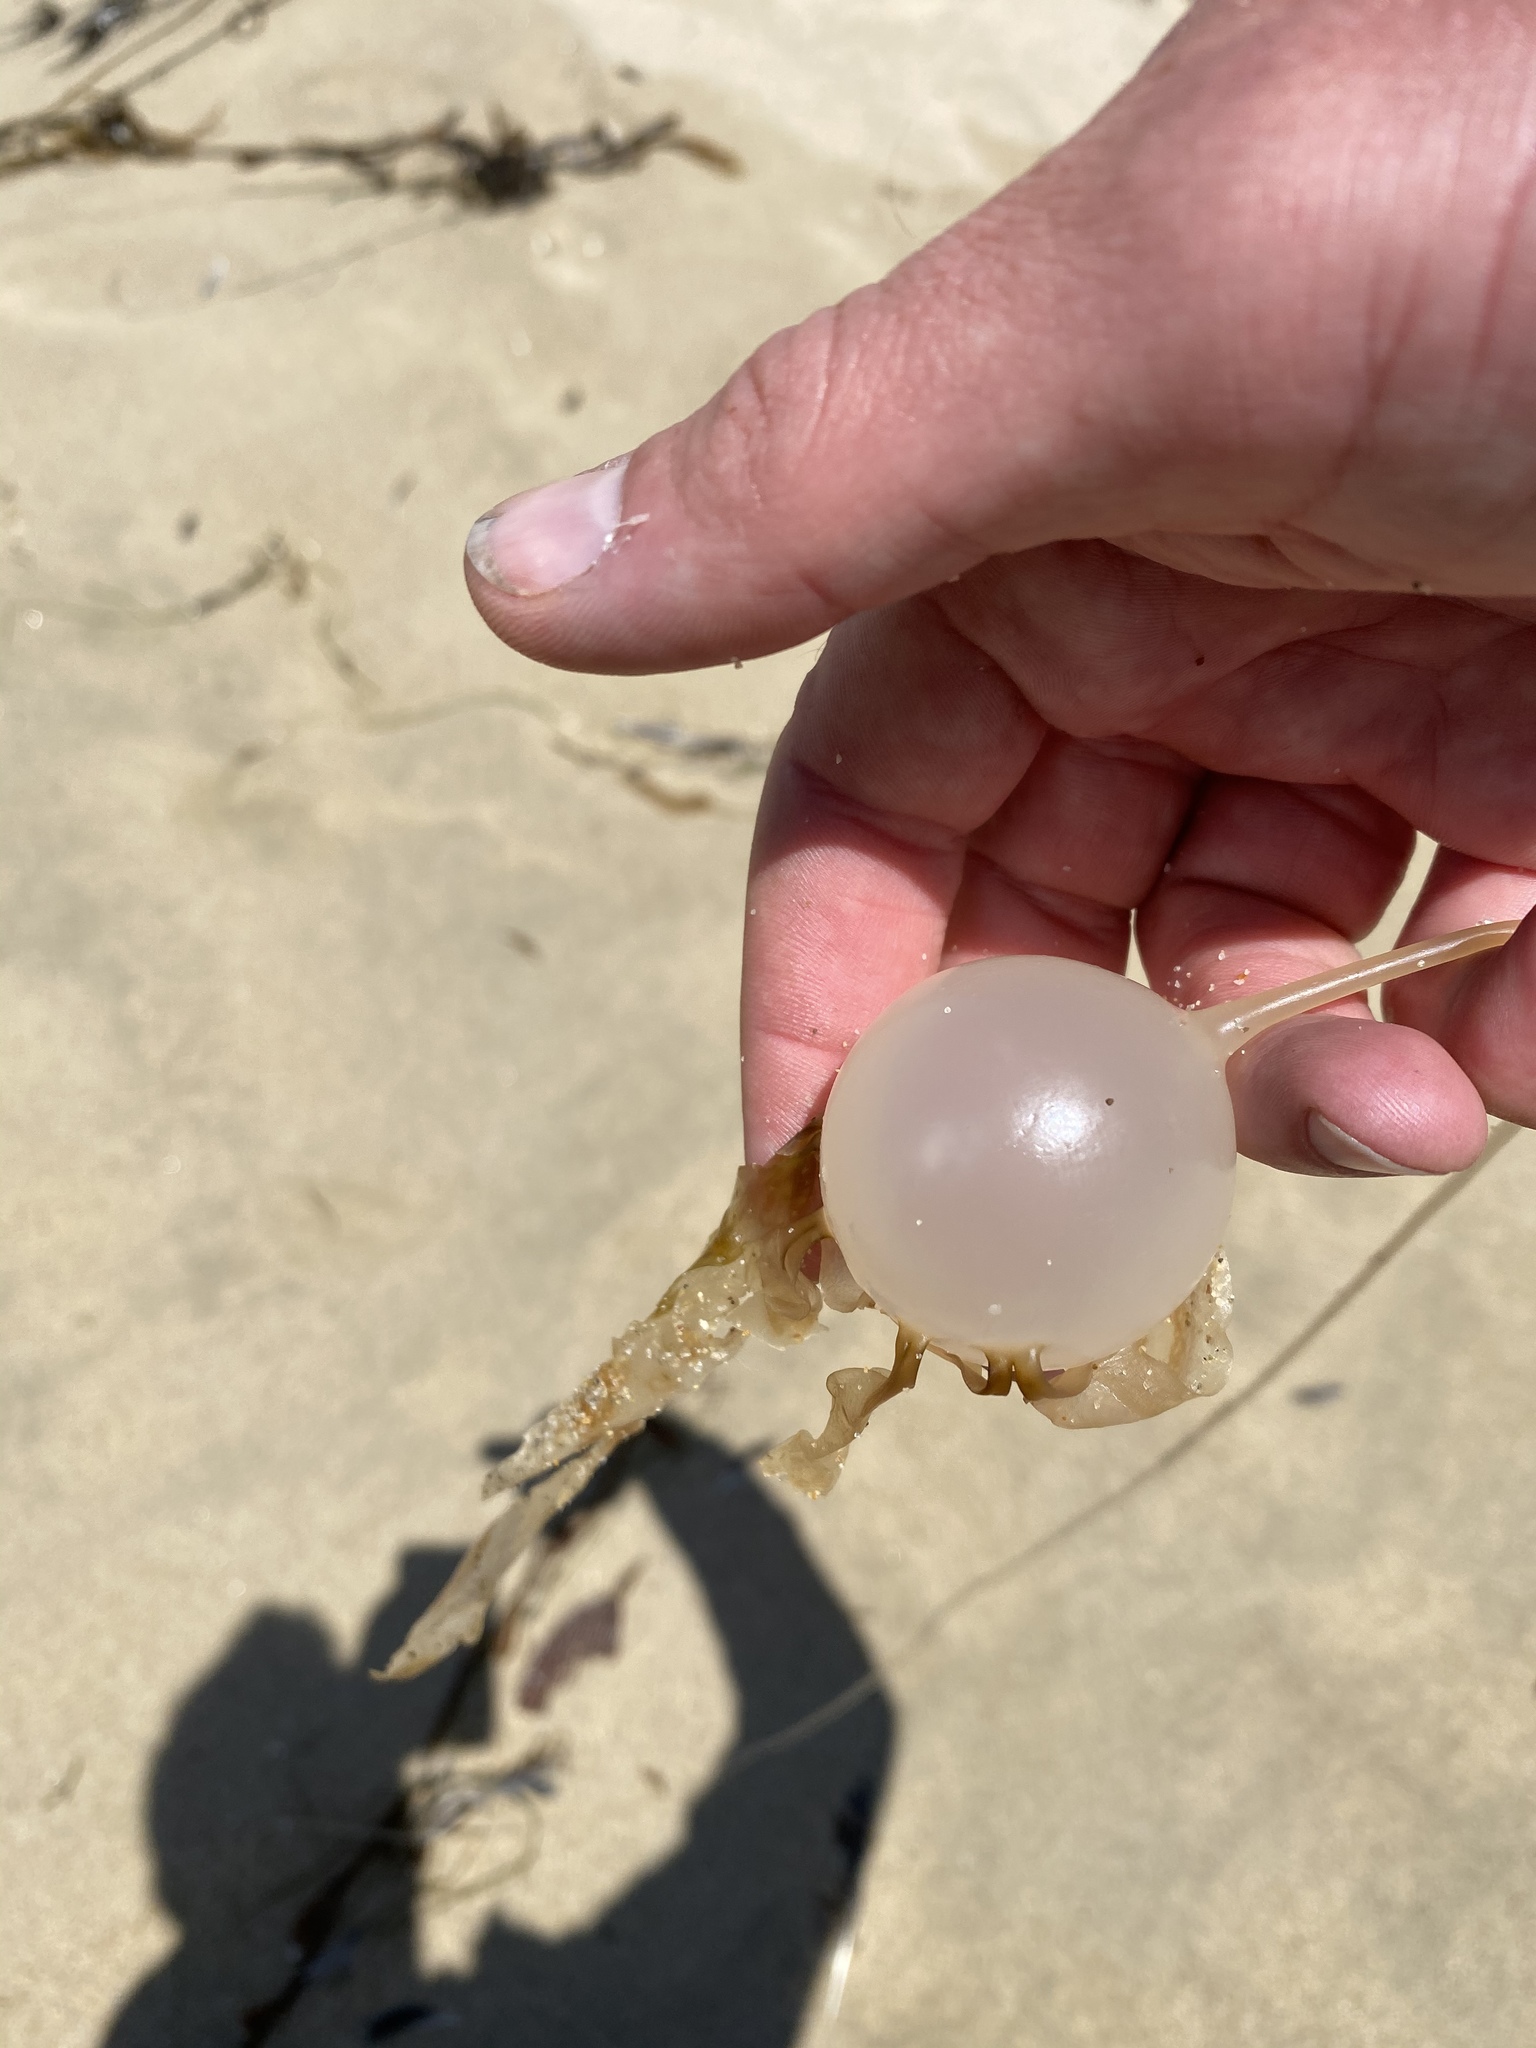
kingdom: Chromista
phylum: Ochrophyta
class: Phaeophyceae
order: Laminariales
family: Laminariaceae
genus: Nereocystis
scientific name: Nereocystis luetkeana
